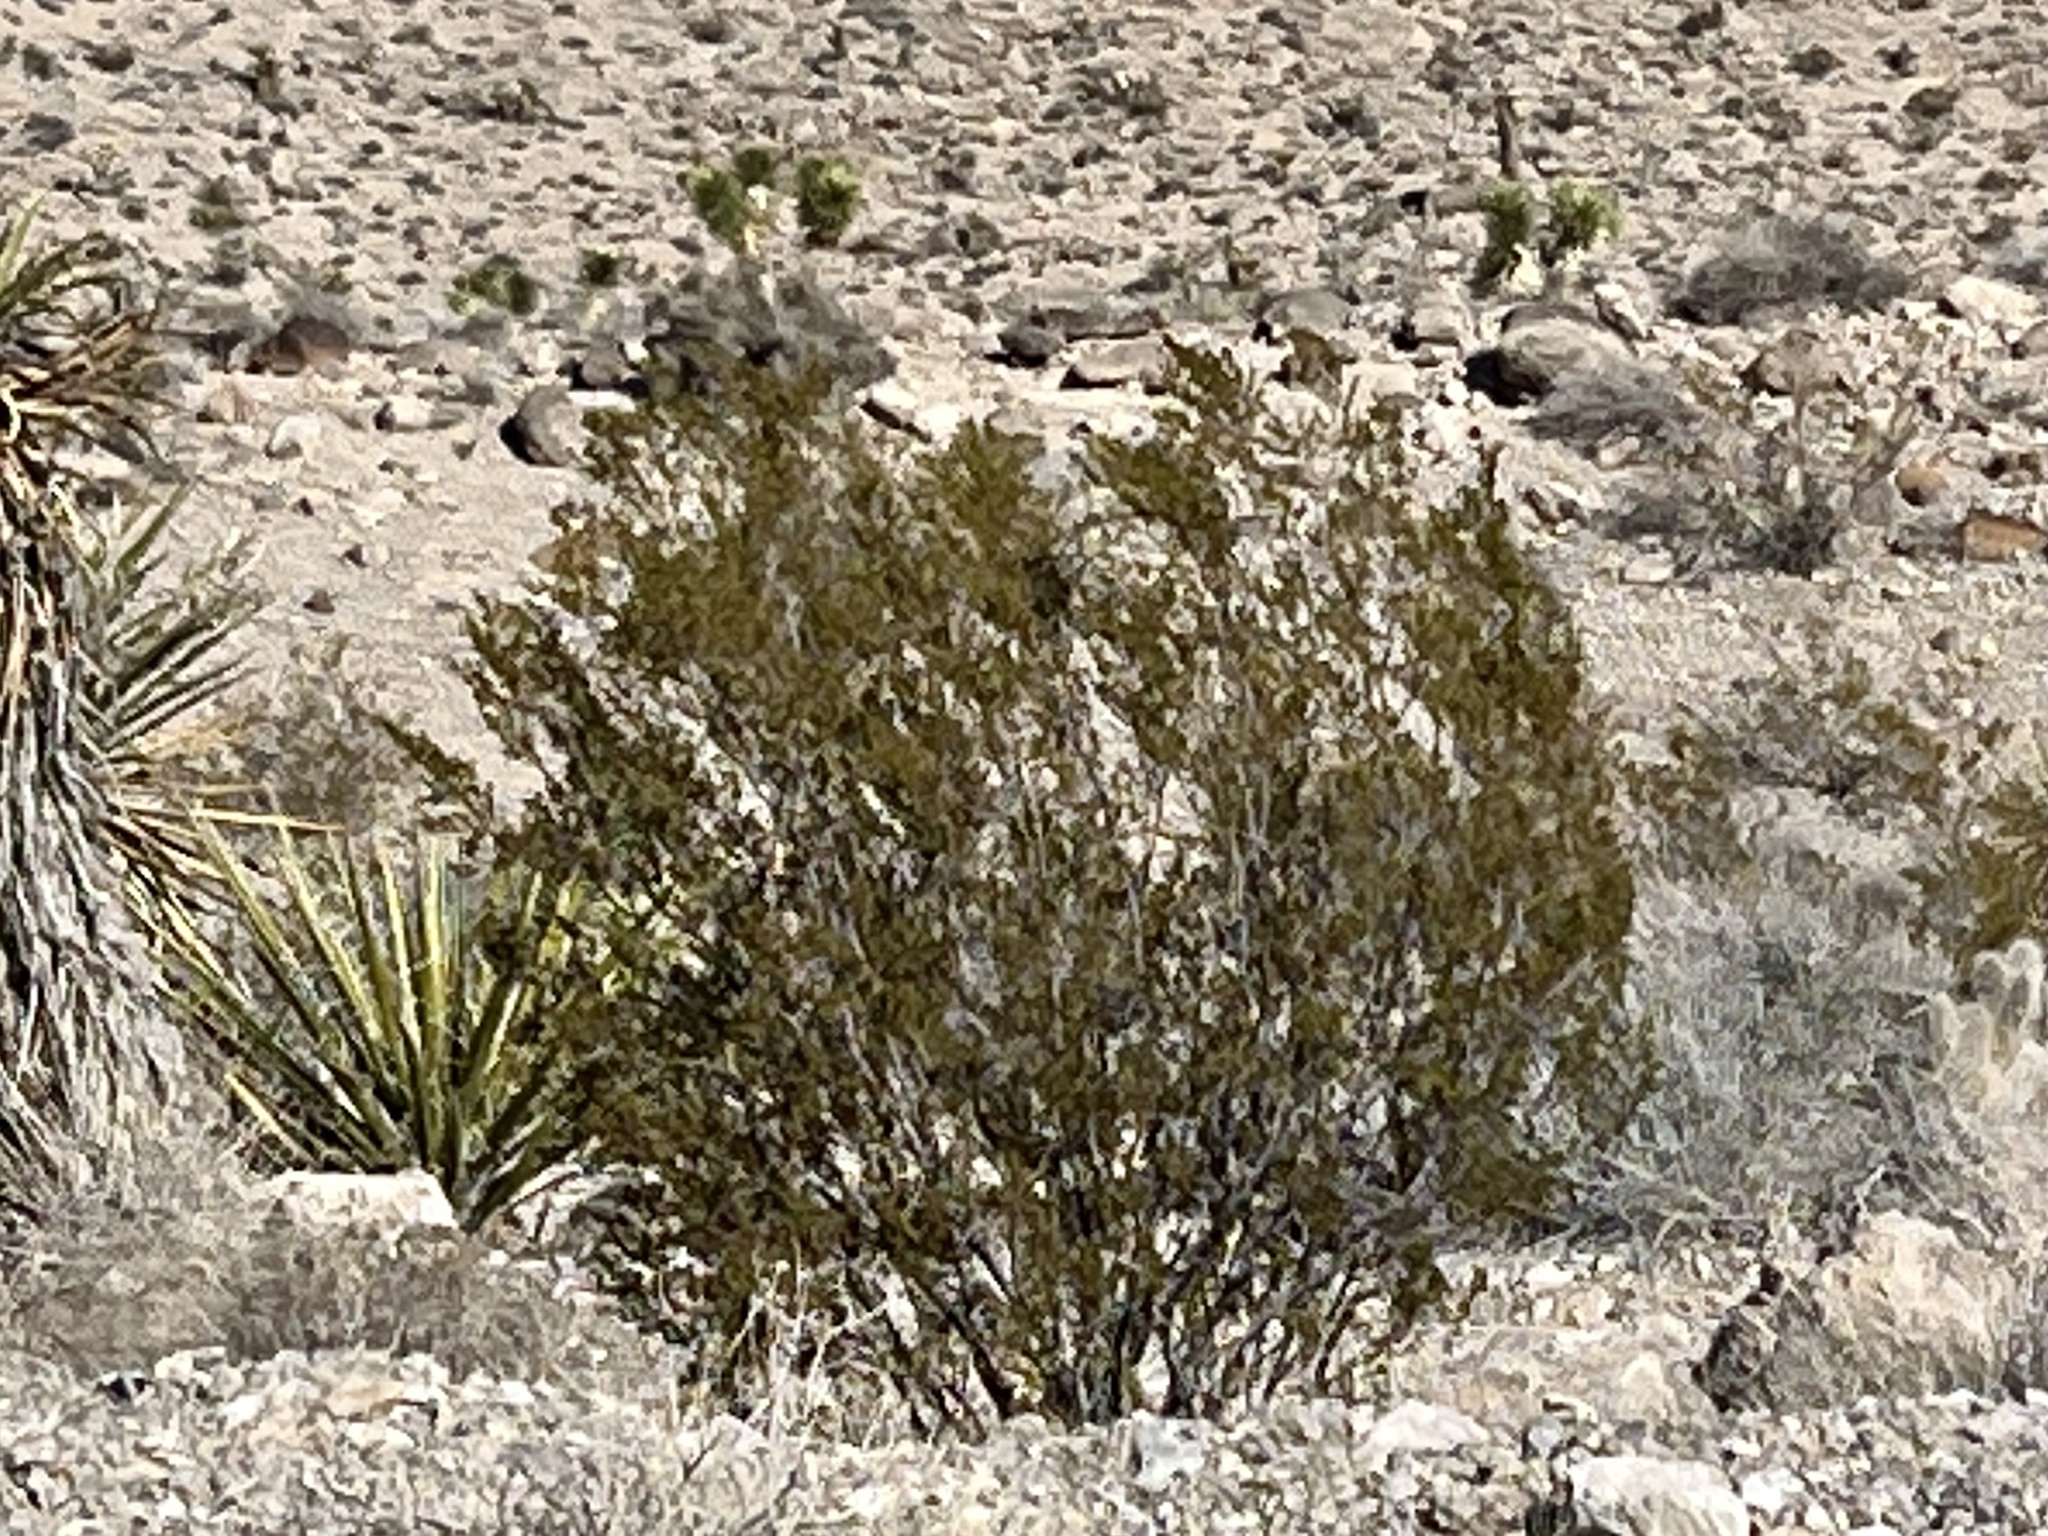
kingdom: Plantae
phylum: Tracheophyta
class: Magnoliopsida
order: Zygophyllales
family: Zygophyllaceae
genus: Larrea
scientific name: Larrea tridentata
